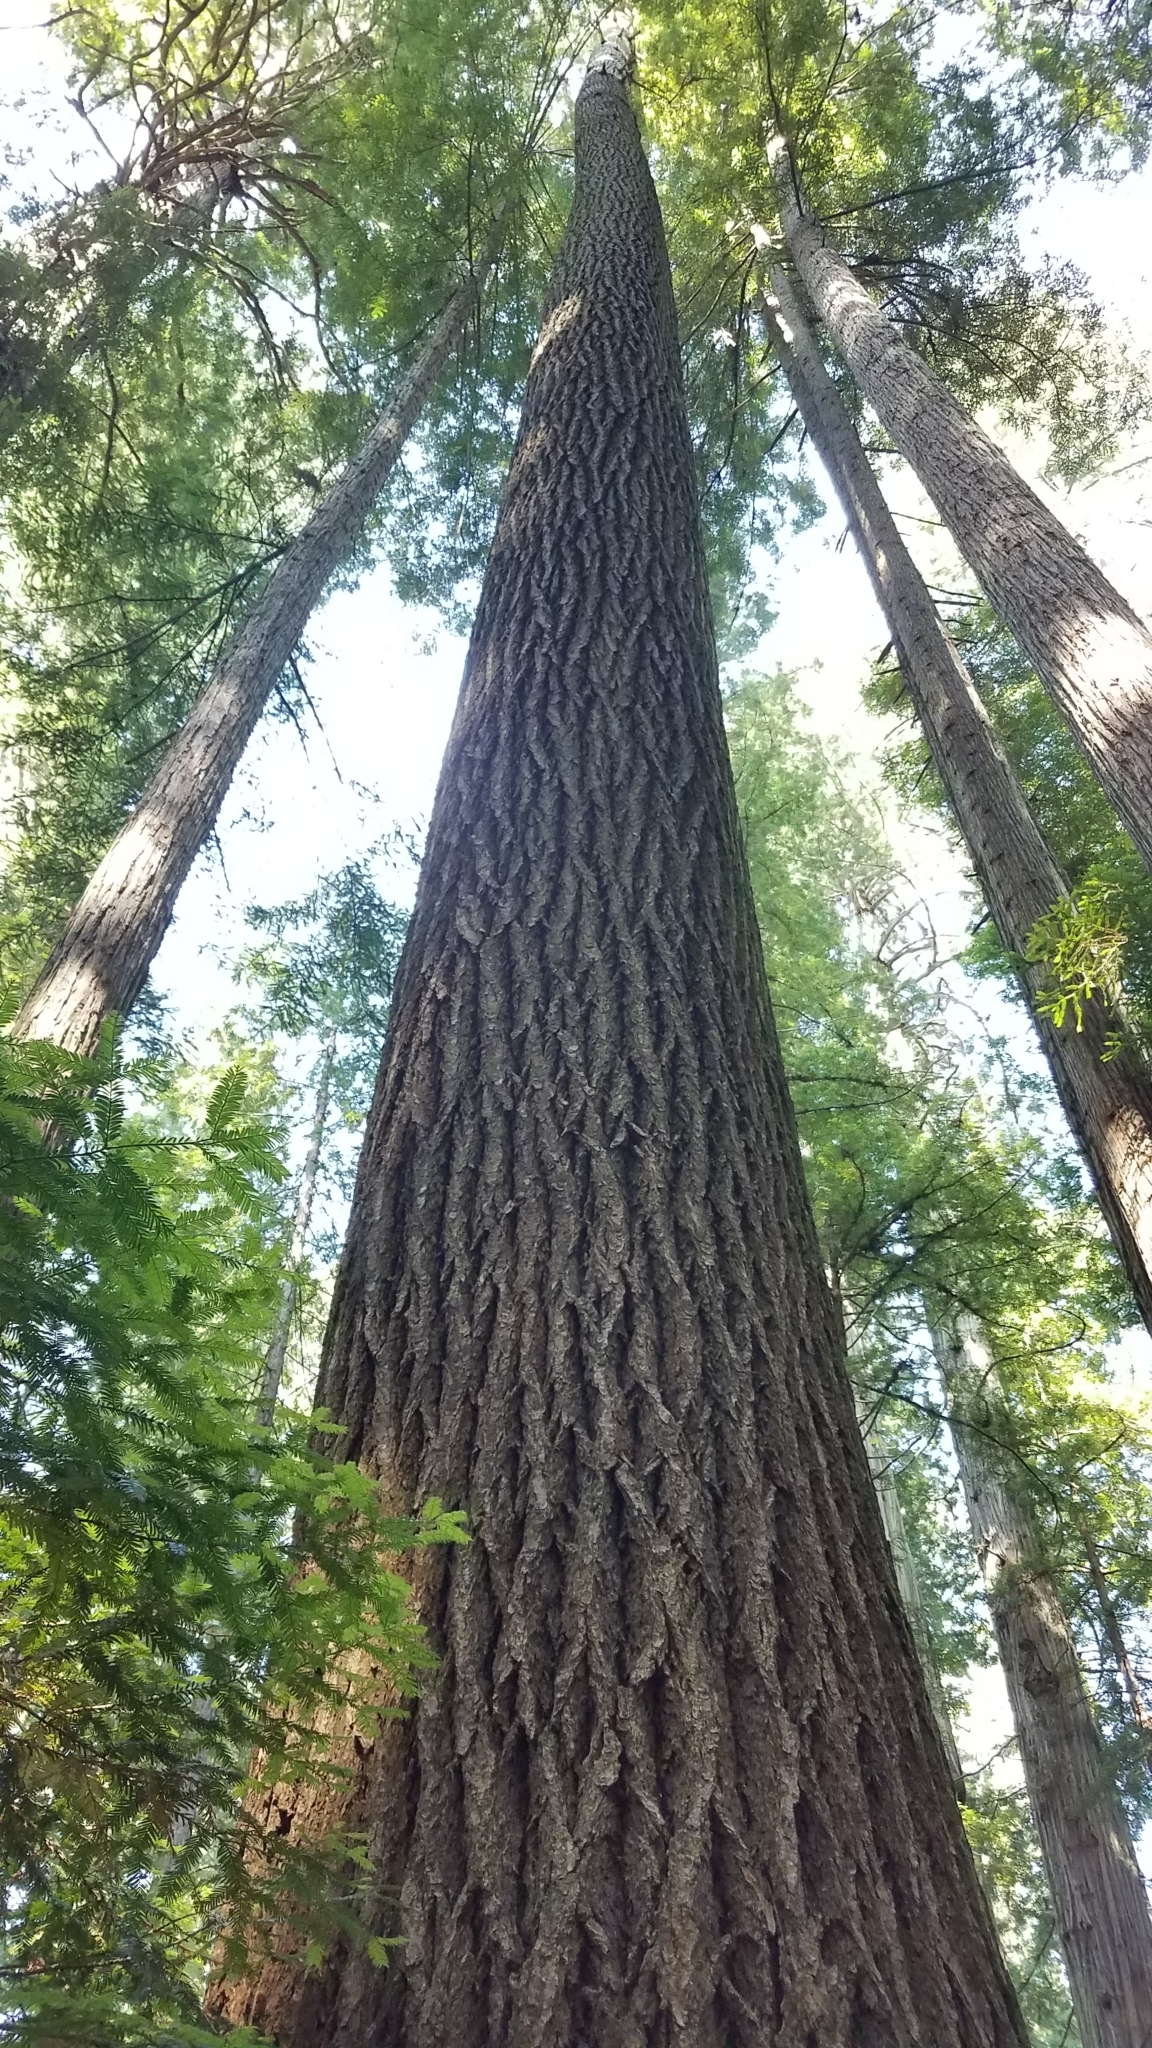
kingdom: Plantae
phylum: Tracheophyta
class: Pinopsida
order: Pinales
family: Pinaceae
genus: Pseudotsuga
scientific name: Pseudotsuga menziesii
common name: Douglas fir
